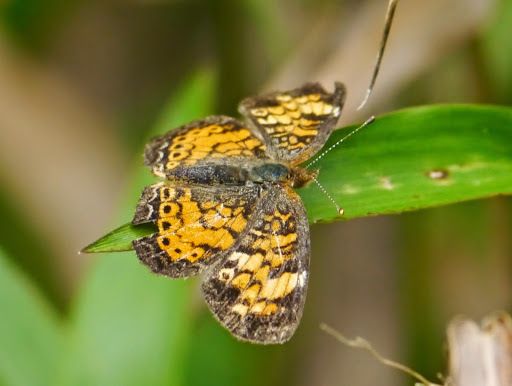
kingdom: Animalia
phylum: Arthropoda
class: Insecta
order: Lepidoptera
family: Nymphalidae
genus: Phyciodes
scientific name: Phyciodes tharos
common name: Pearl crescent
